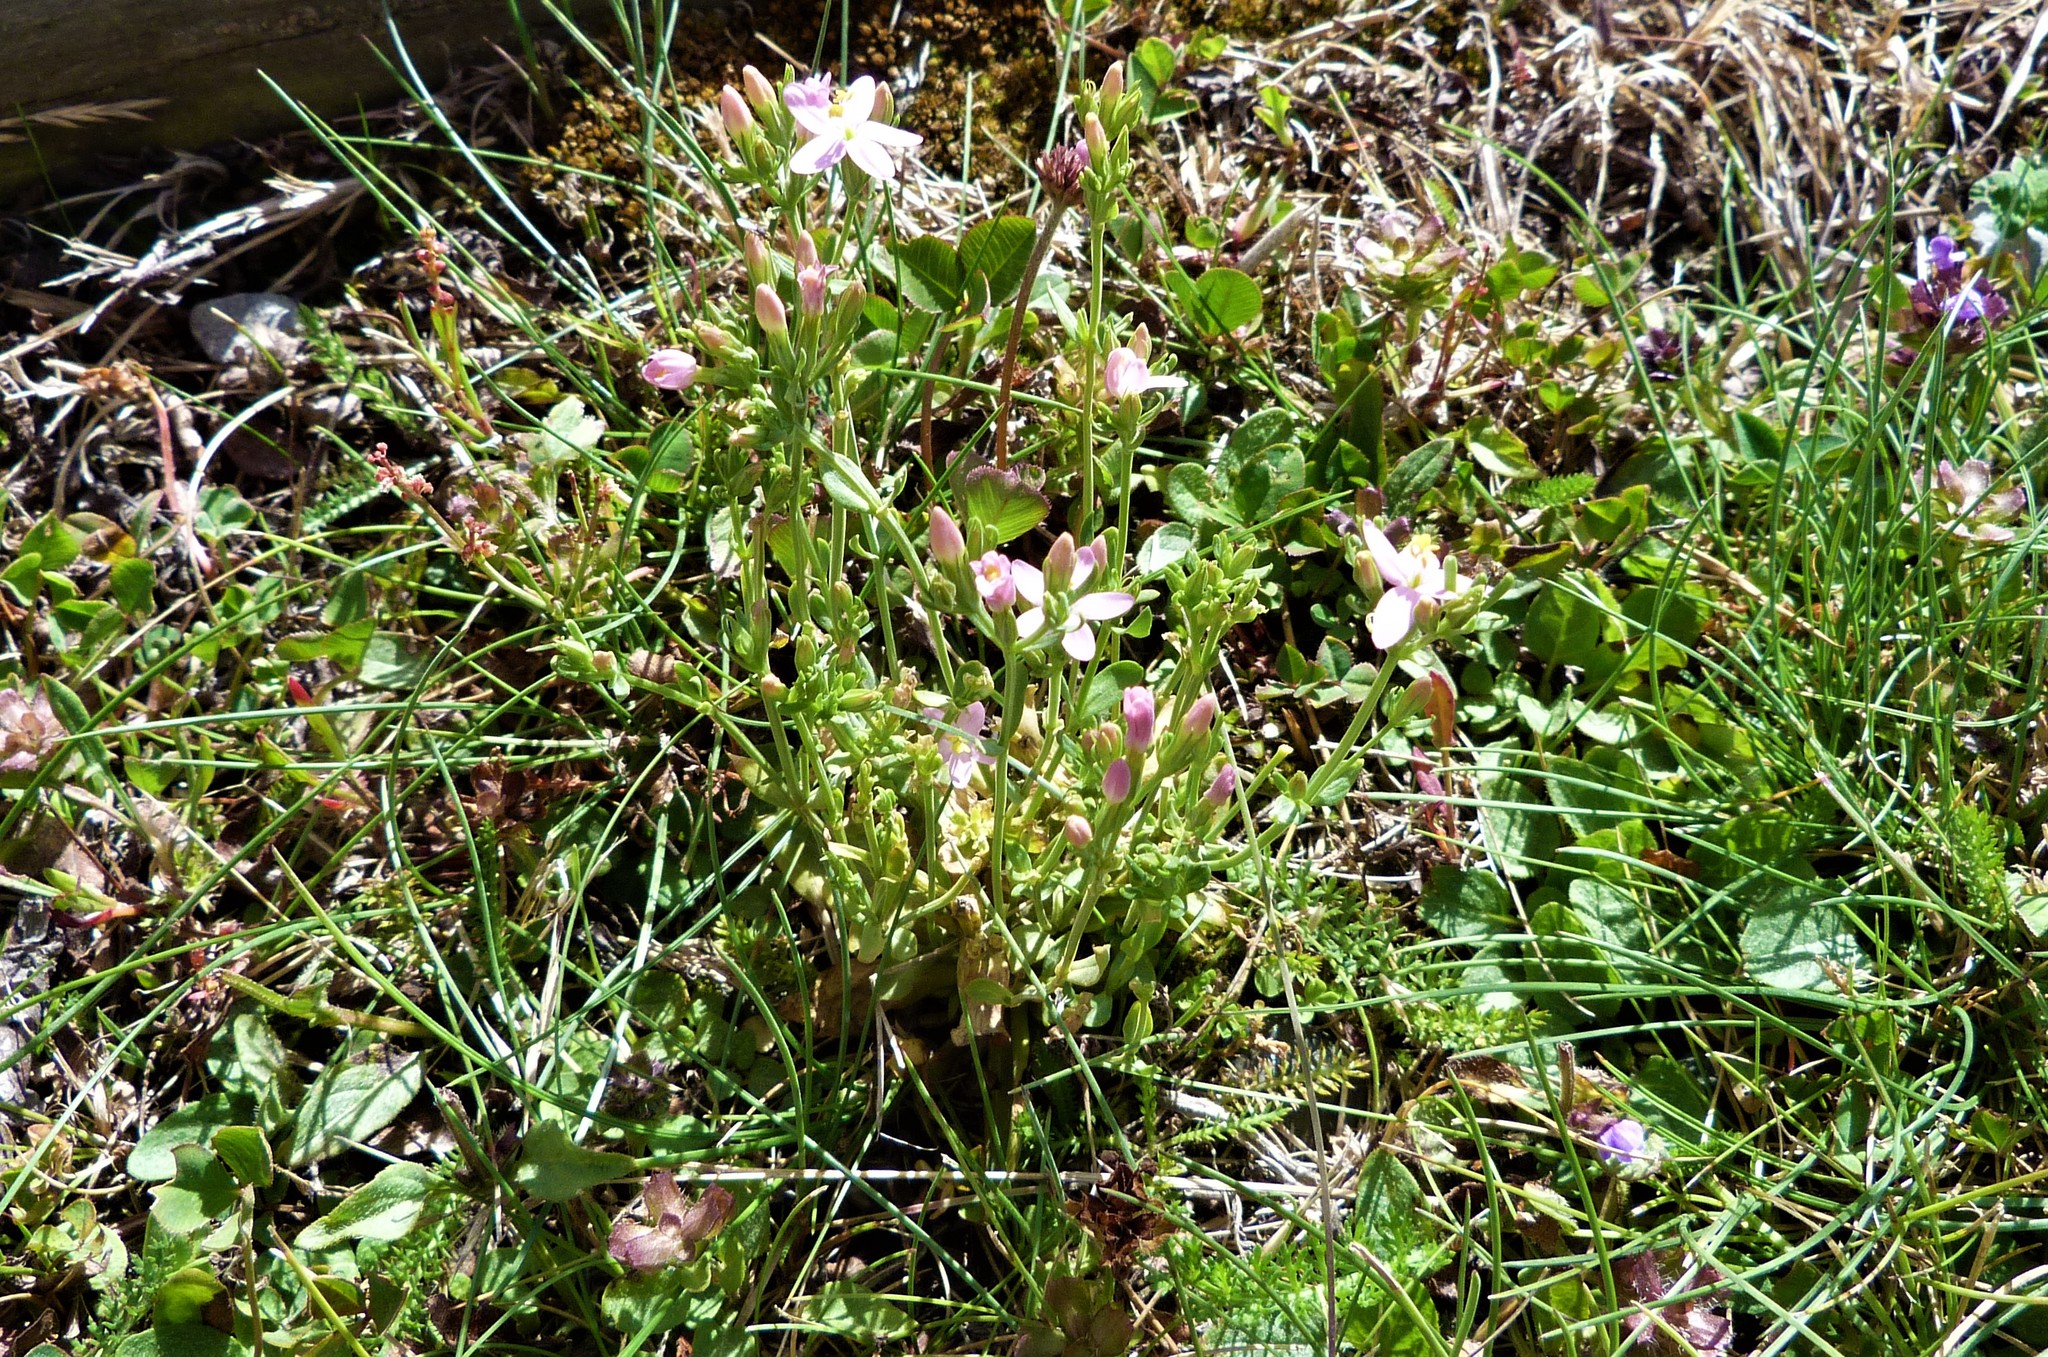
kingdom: Plantae
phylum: Tracheophyta
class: Magnoliopsida
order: Gentianales
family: Gentianaceae
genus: Centaurium
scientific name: Centaurium erythraea
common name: Common centaury
